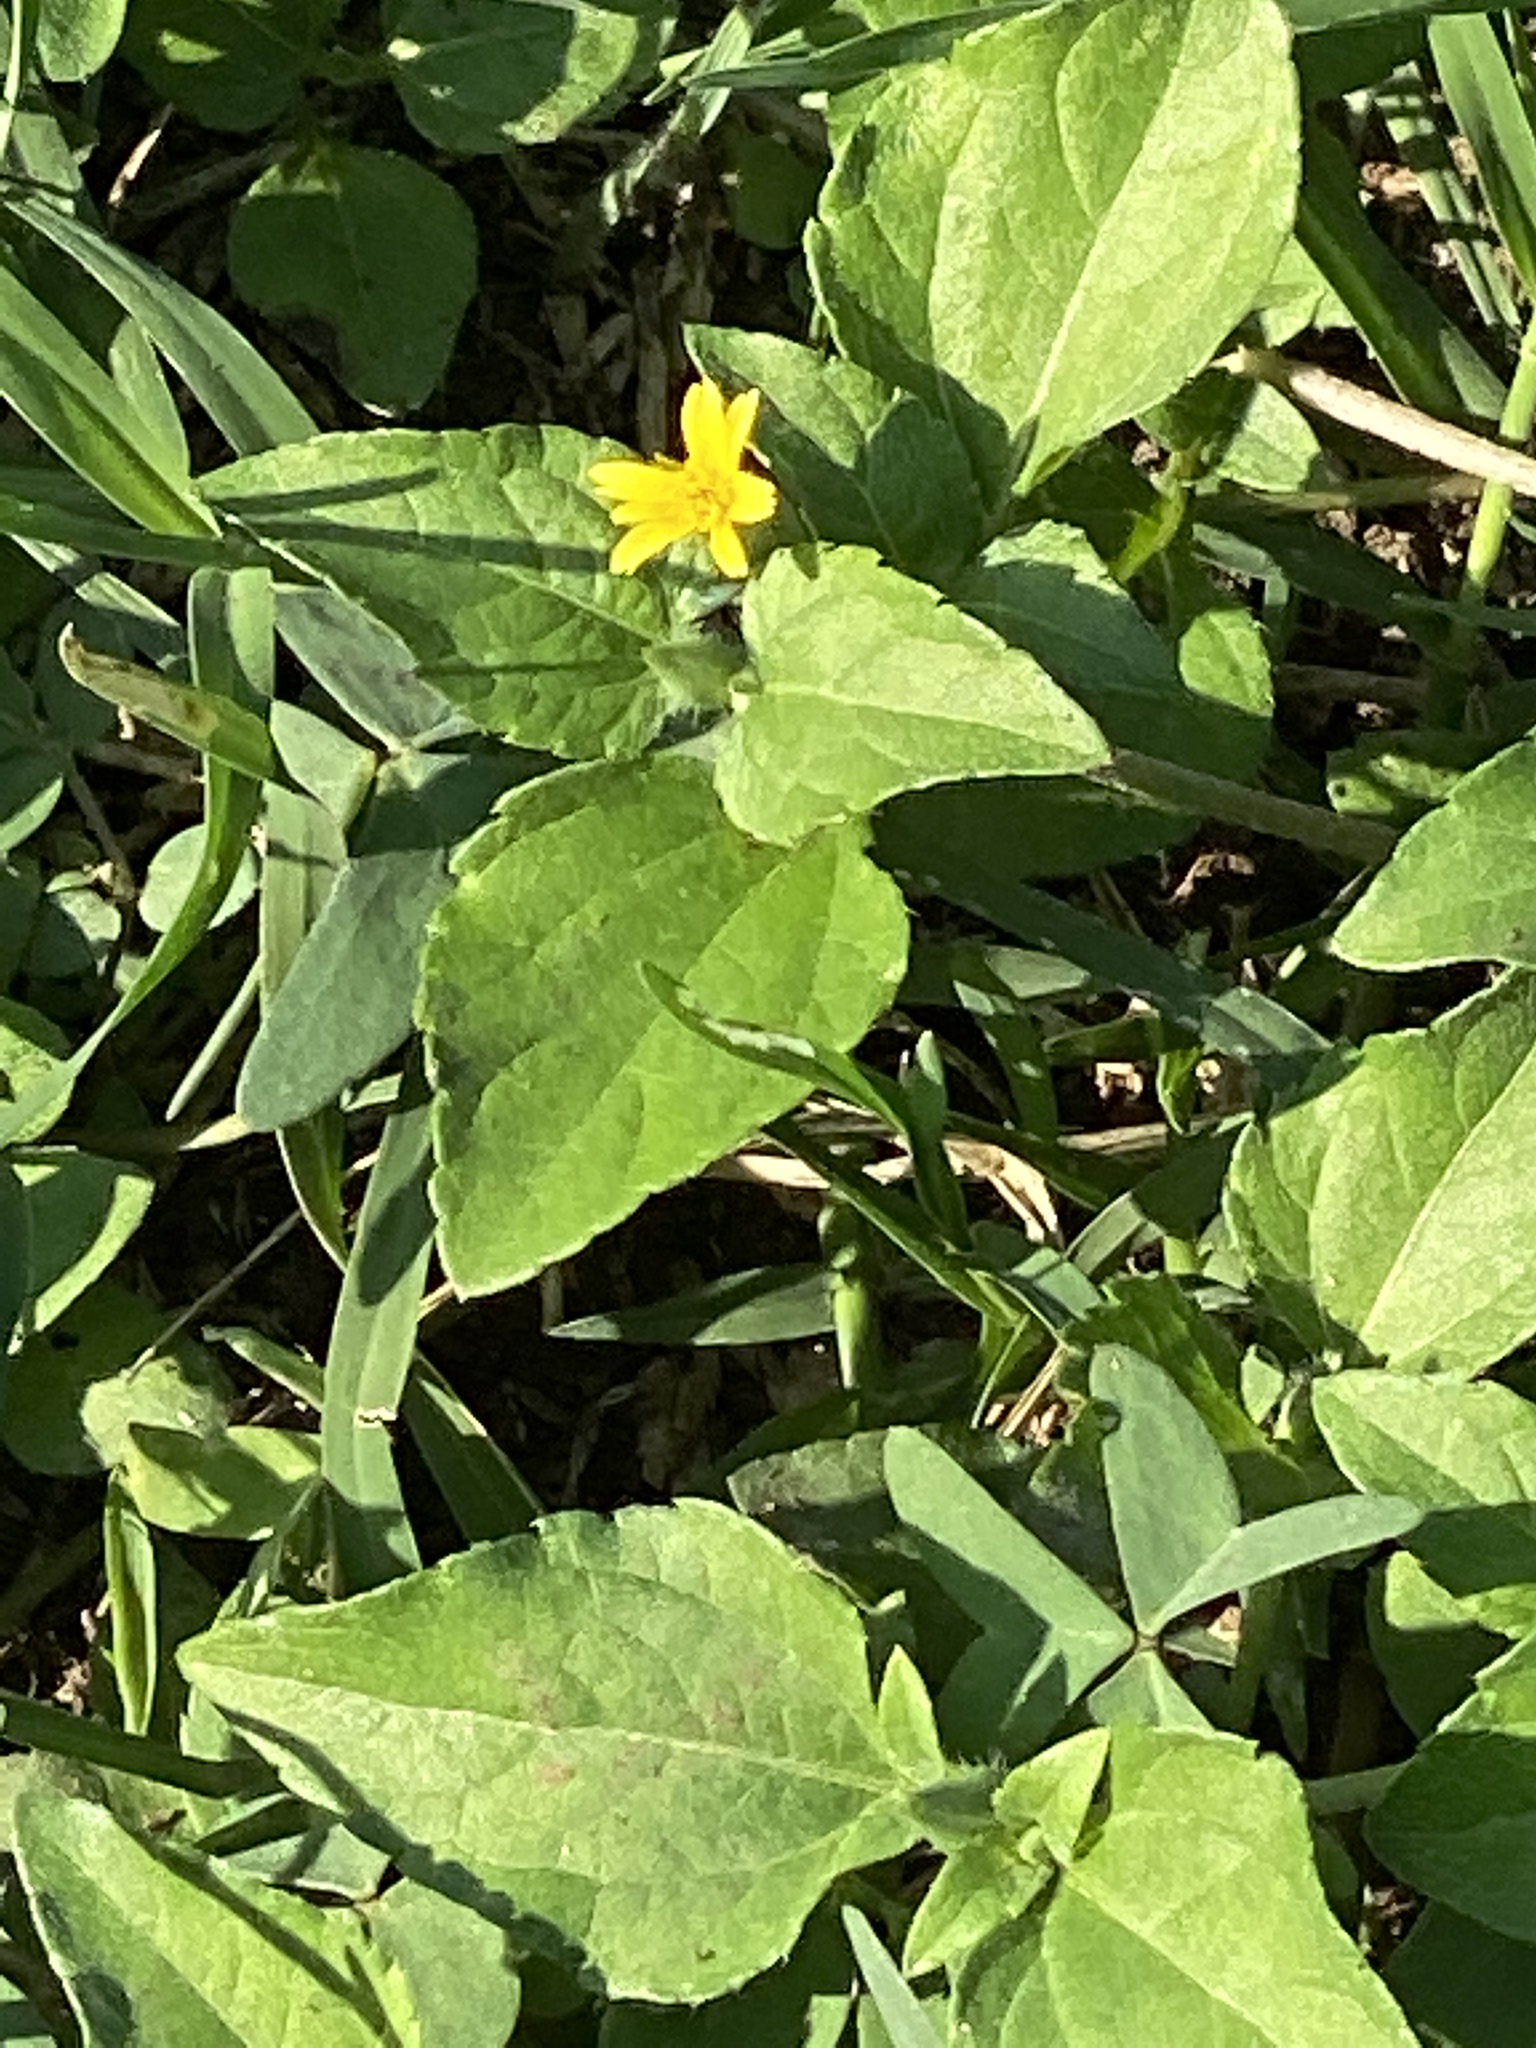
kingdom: Plantae
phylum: Tracheophyta
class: Magnoliopsida
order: Asterales
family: Asteraceae
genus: Calyptocarpus
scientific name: Calyptocarpus vialis
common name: Straggler daisy
